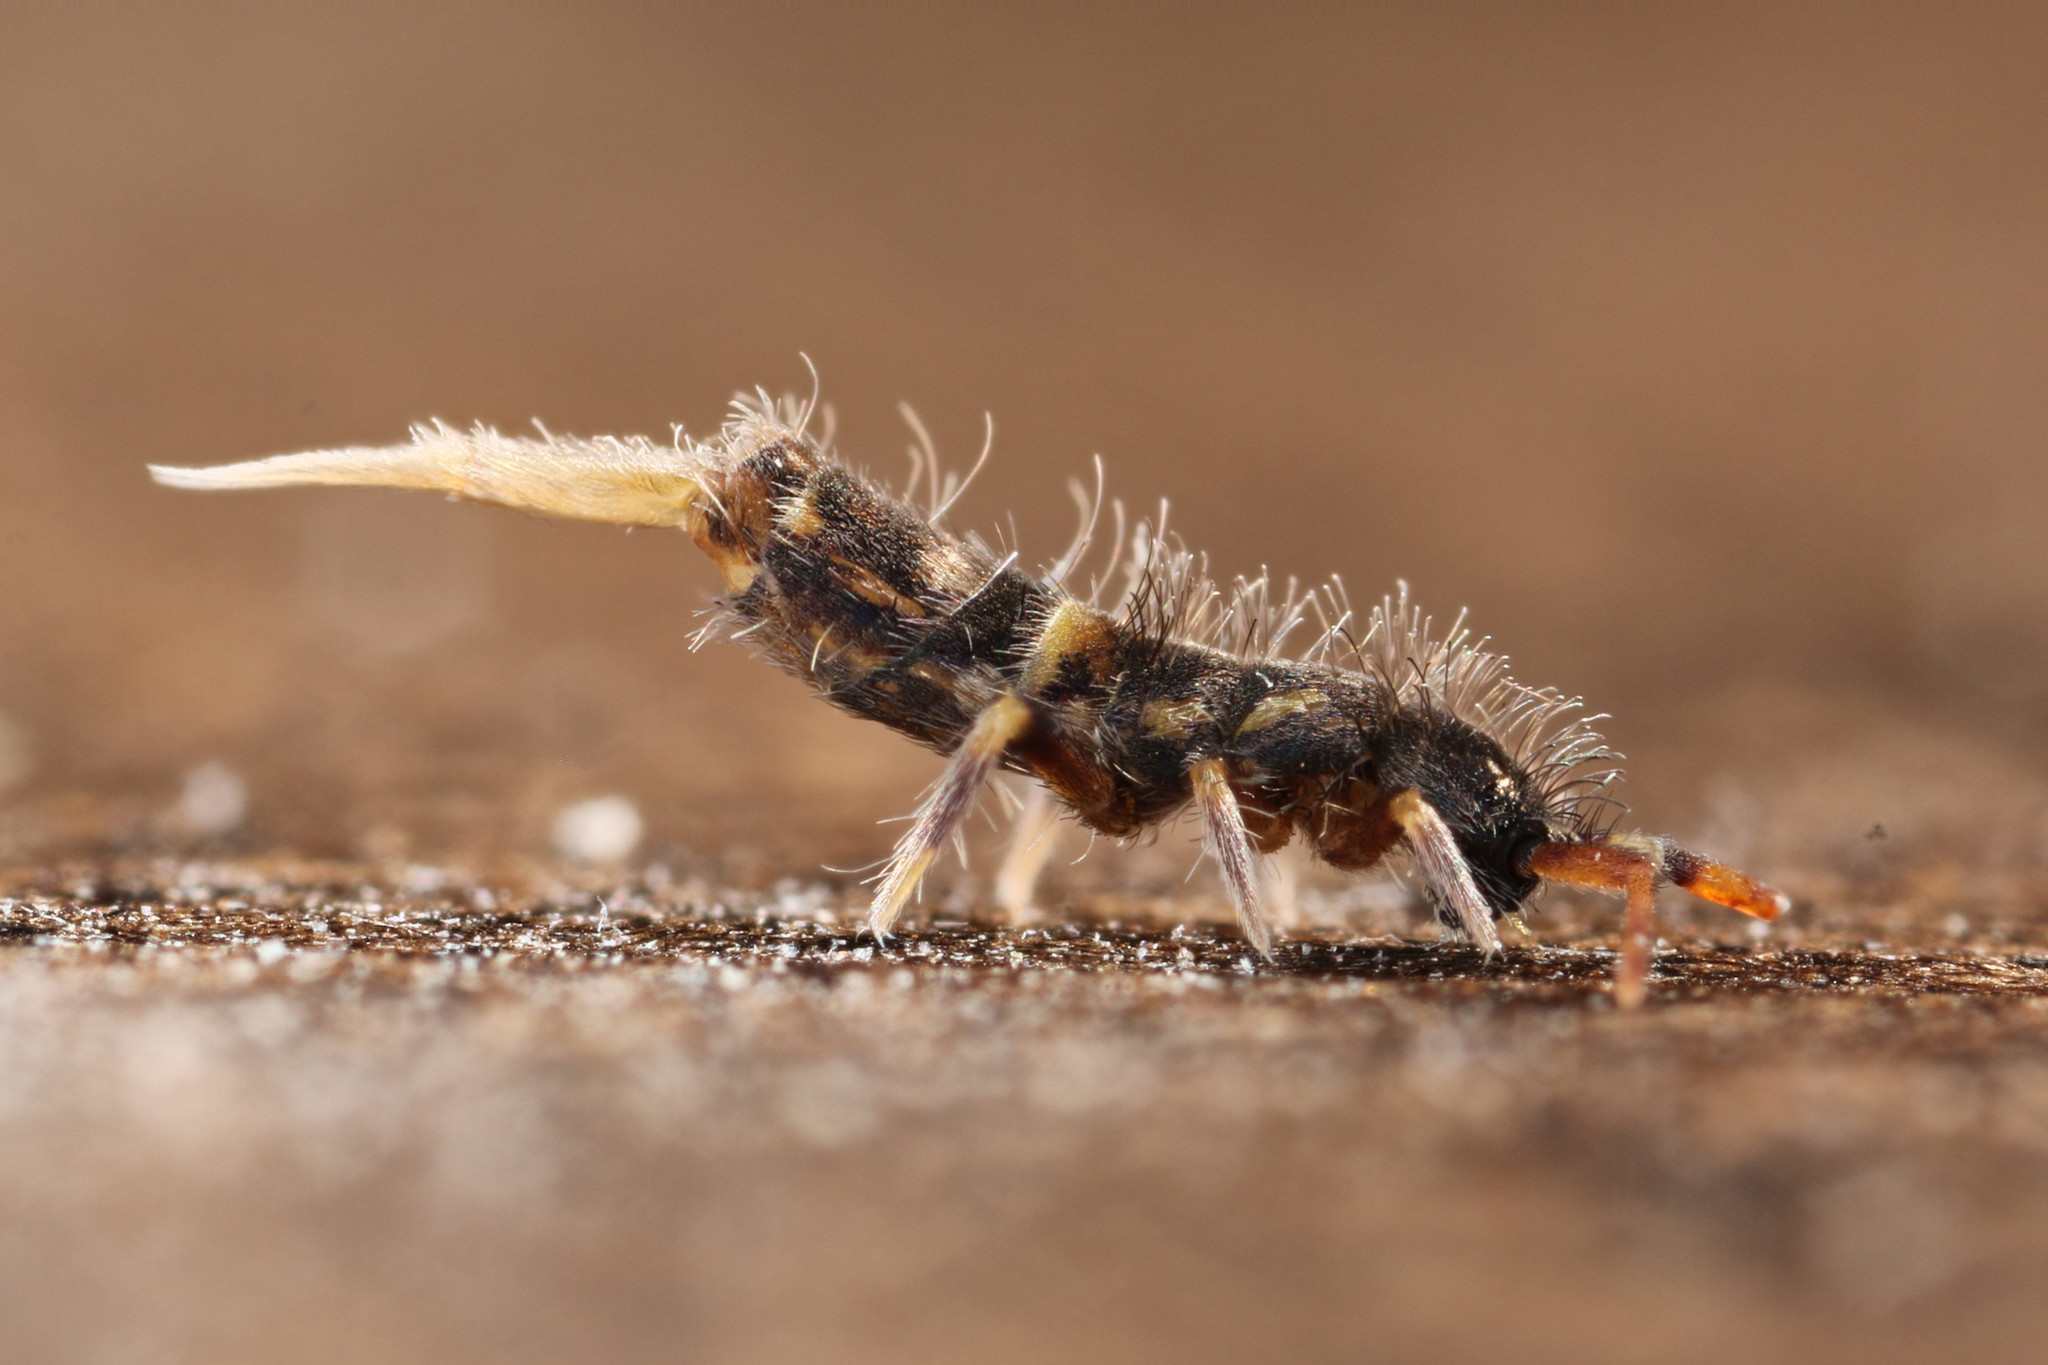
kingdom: Animalia
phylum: Arthropoda
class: Collembola
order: Entomobryomorpha
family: Orchesellidae
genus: Orchesella
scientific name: Orchesella cincta
